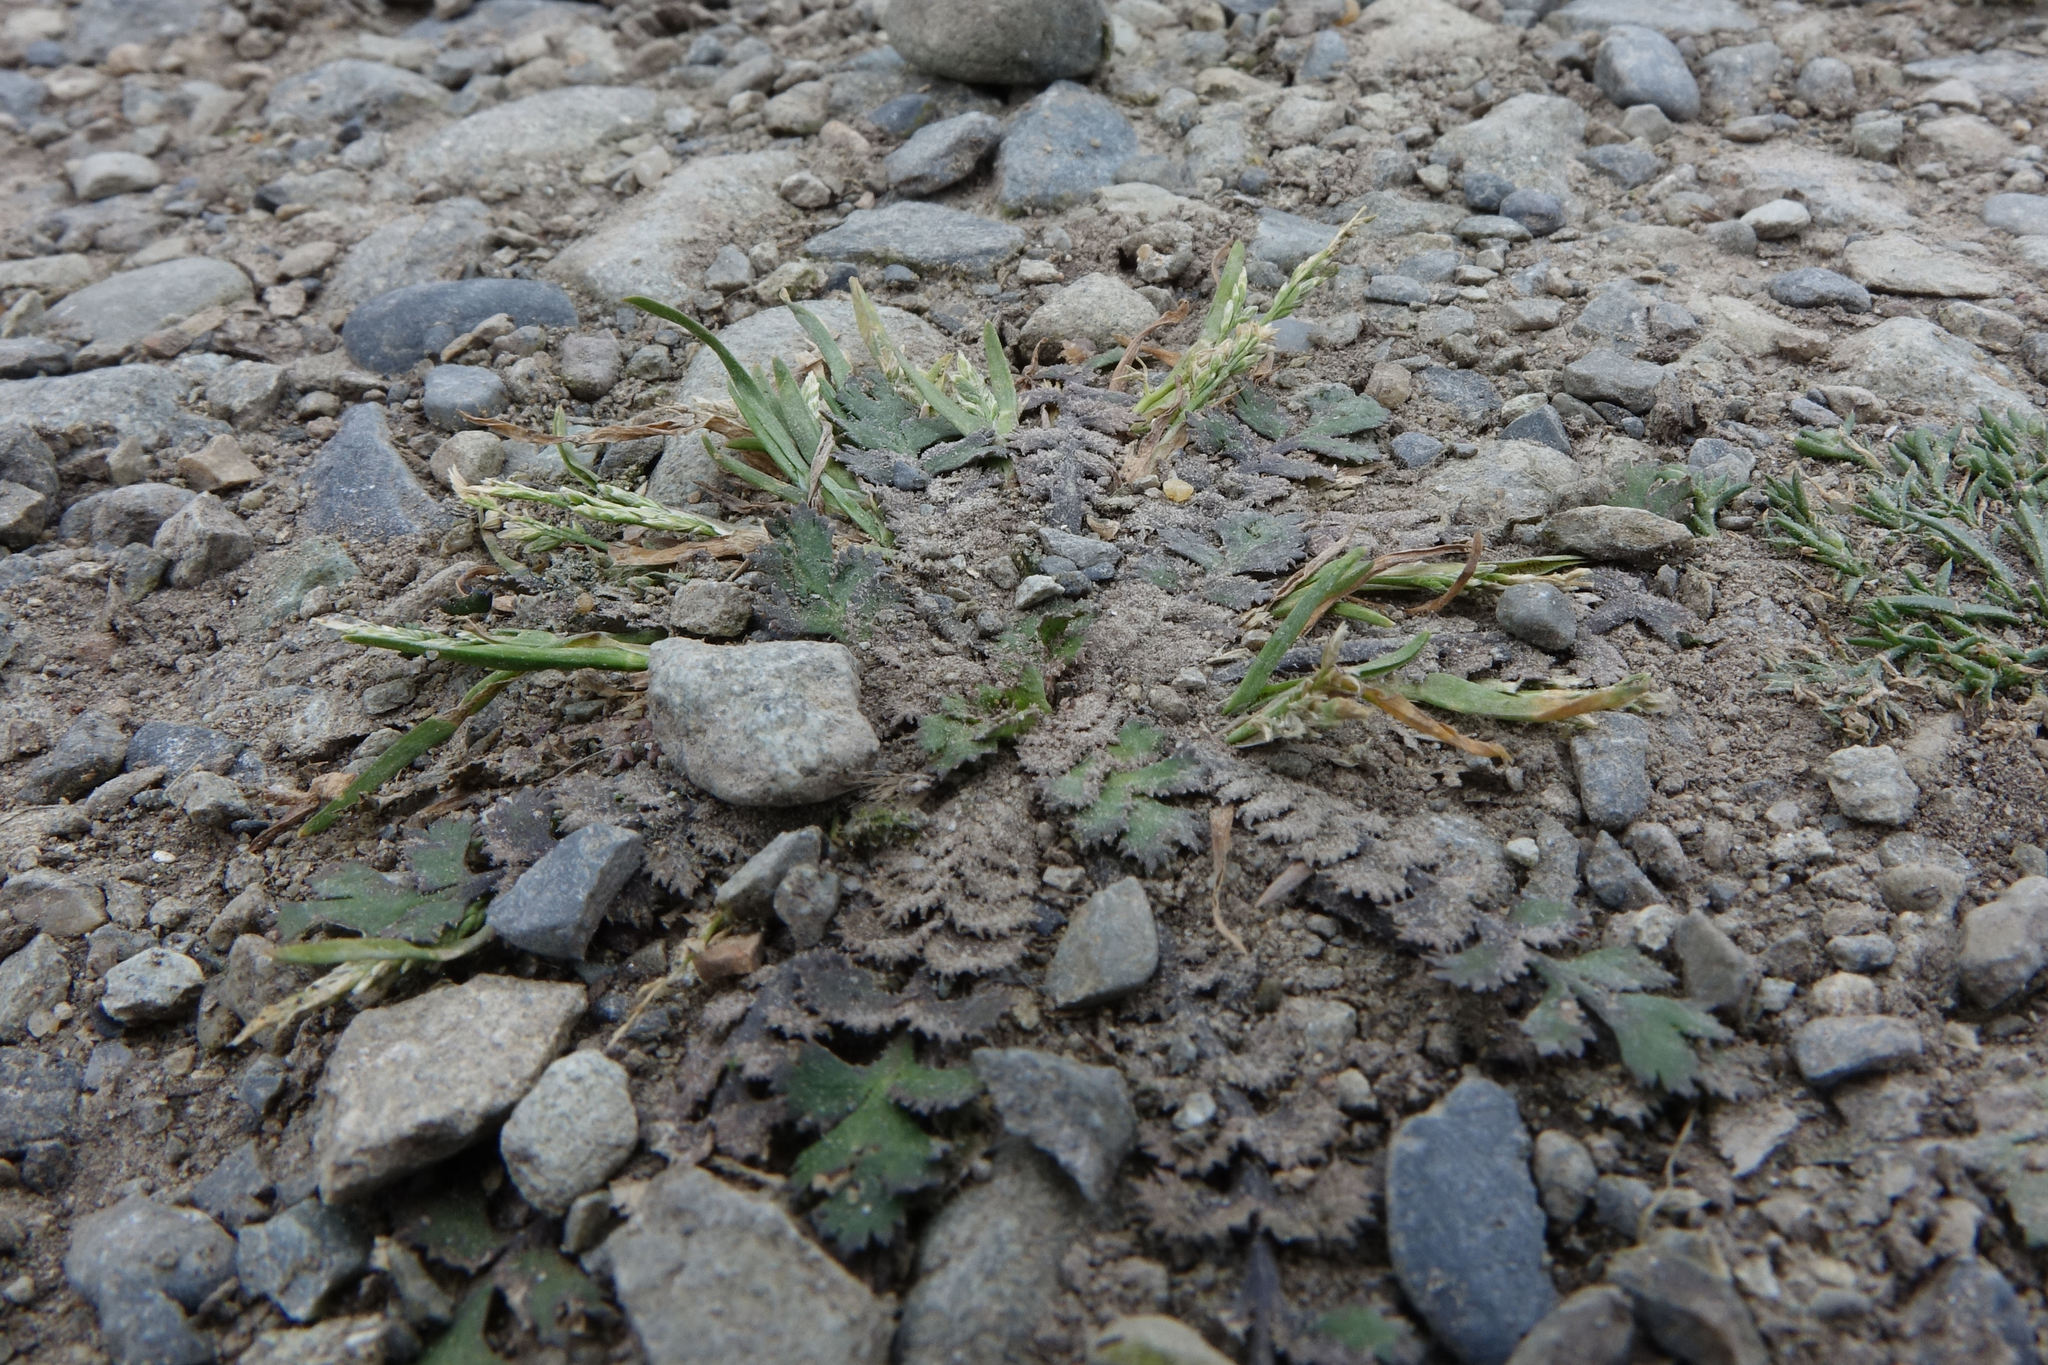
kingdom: Plantae
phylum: Tracheophyta
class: Magnoliopsida
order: Brassicales
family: Brassicaceae
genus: Lepidium
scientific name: Lepidium tenuicaule
